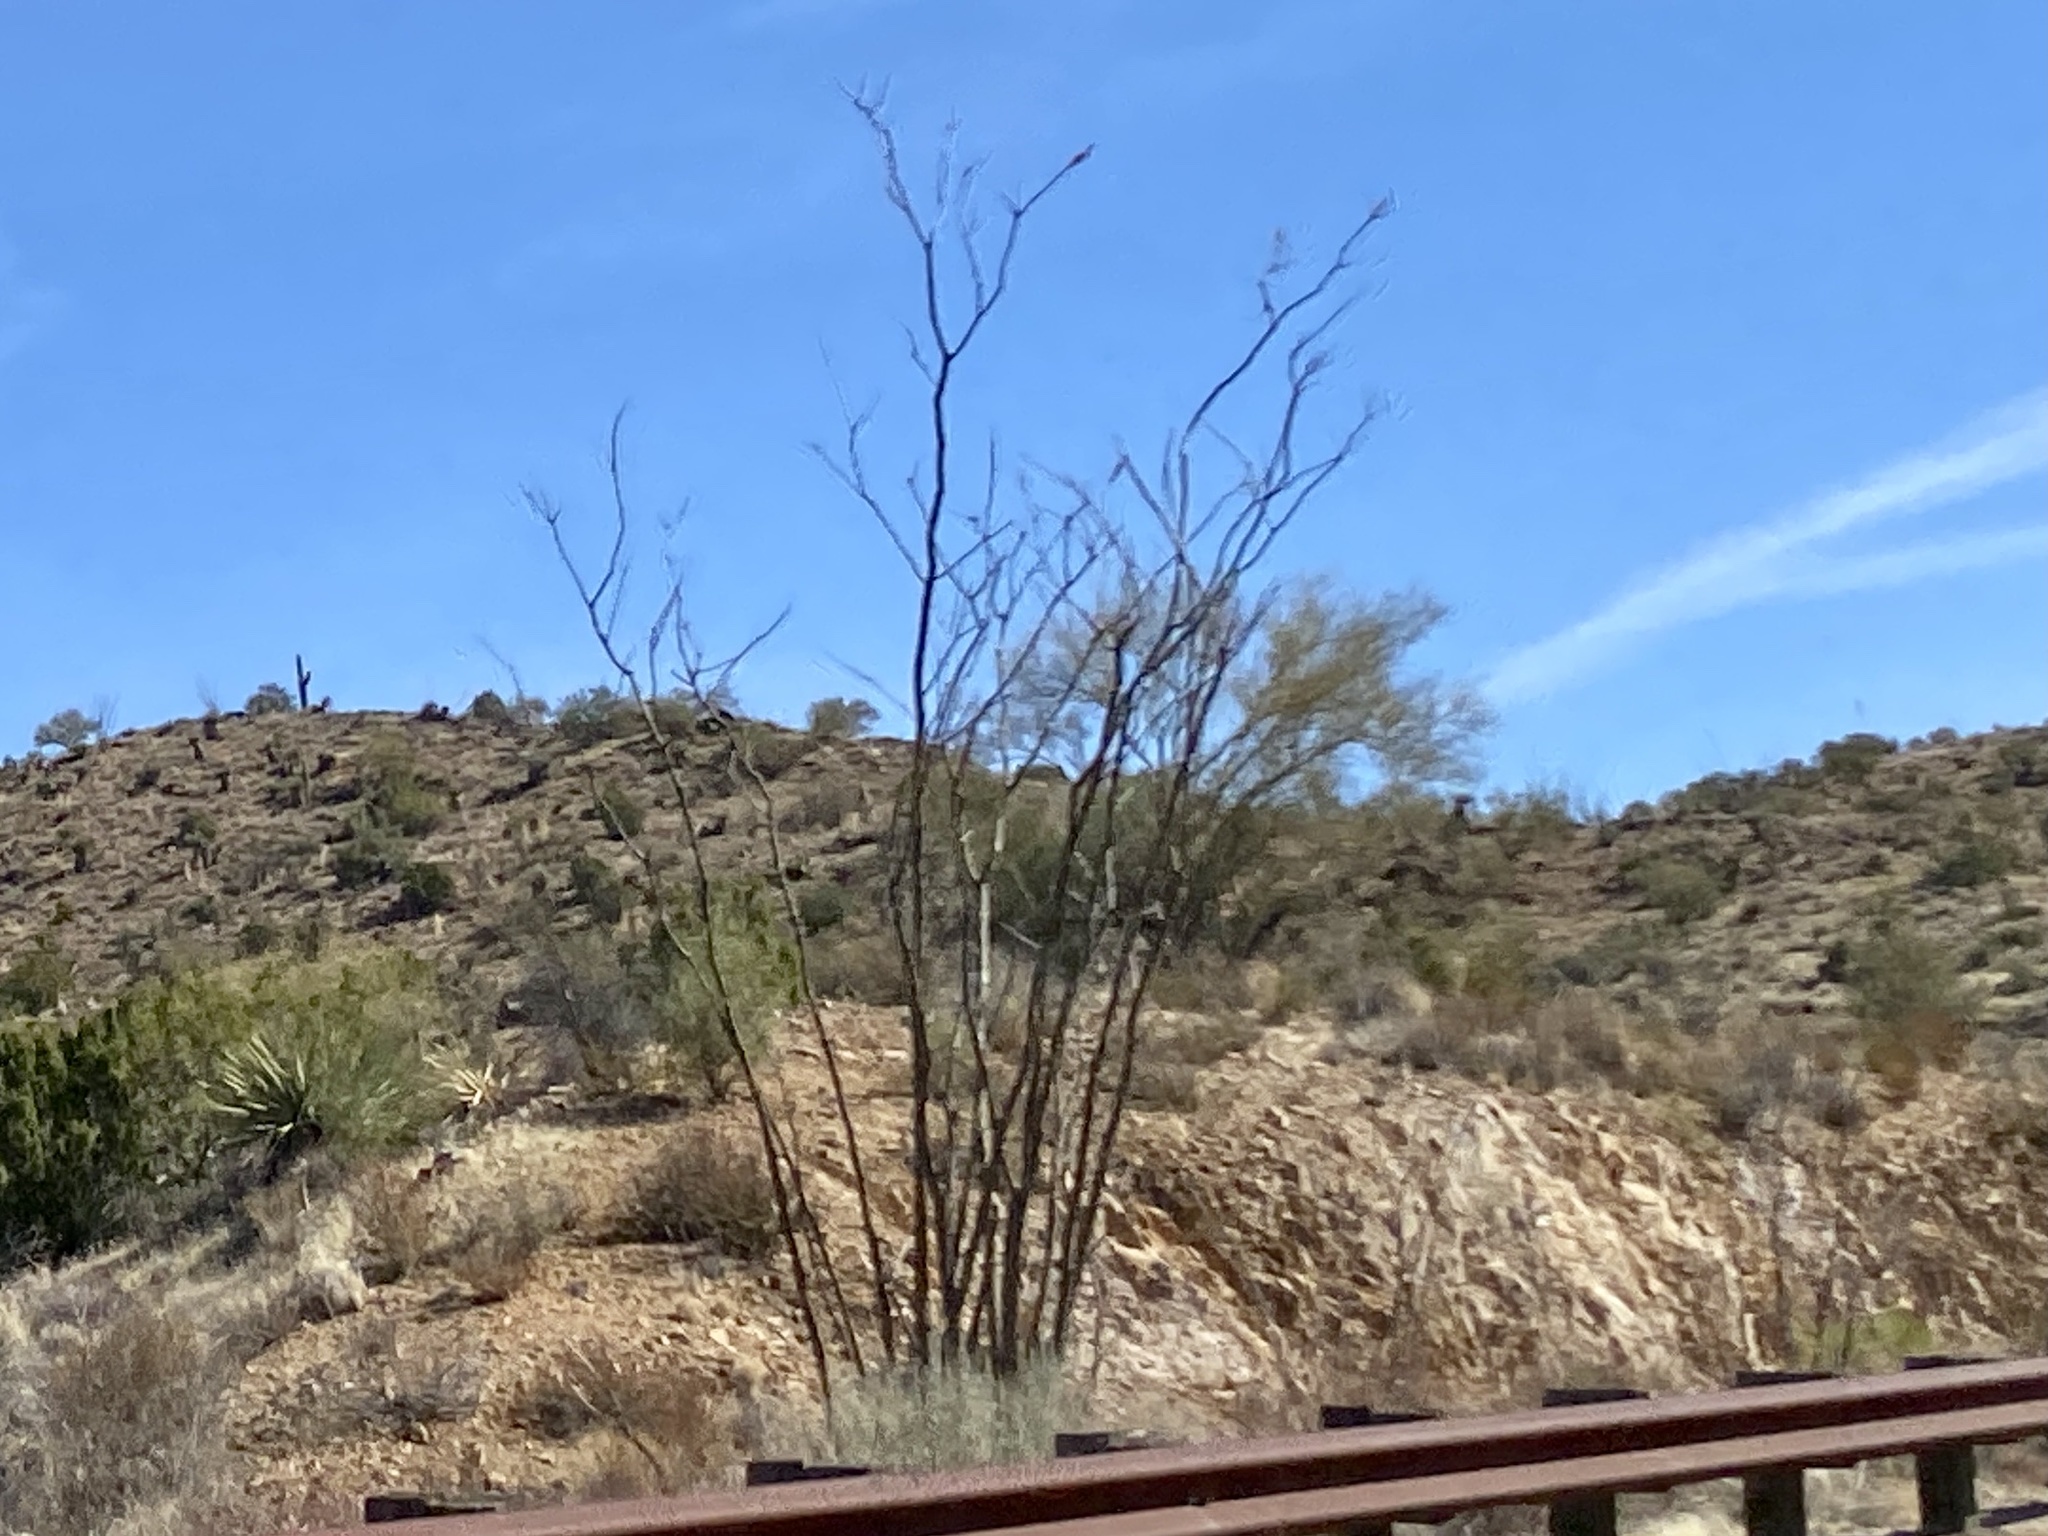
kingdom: Plantae
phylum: Tracheophyta
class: Magnoliopsida
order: Ericales
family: Fouquieriaceae
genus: Fouquieria
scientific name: Fouquieria splendens
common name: Vine-cactus
